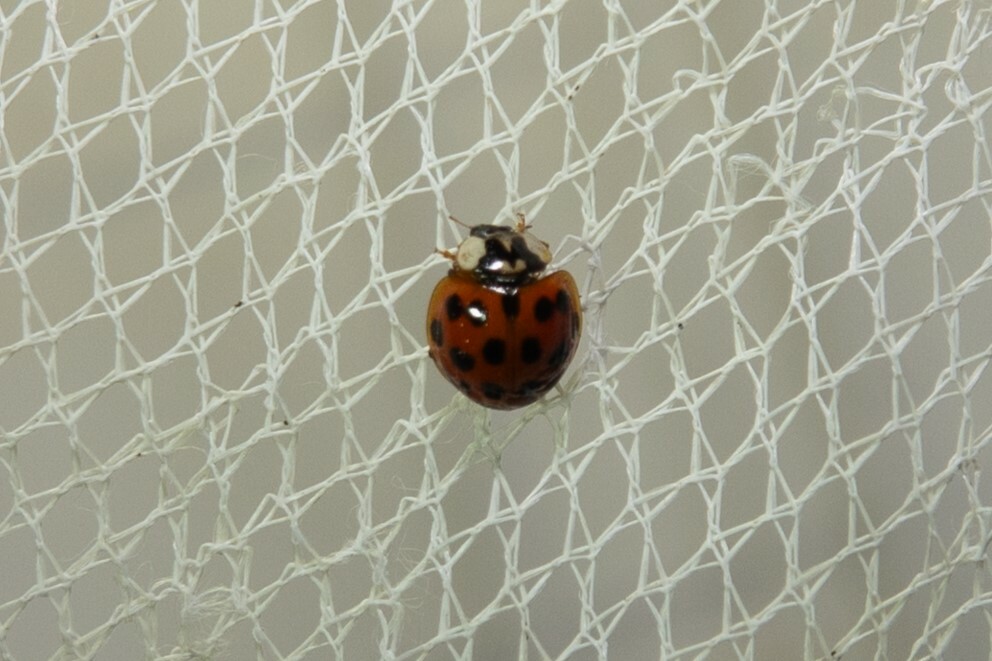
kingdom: Animalia
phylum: Arthropoda
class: Insecta
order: Coleoptera
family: Coccinellidae
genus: Harmonia
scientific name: Harmonia axyridis
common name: Harlequin ladybird
